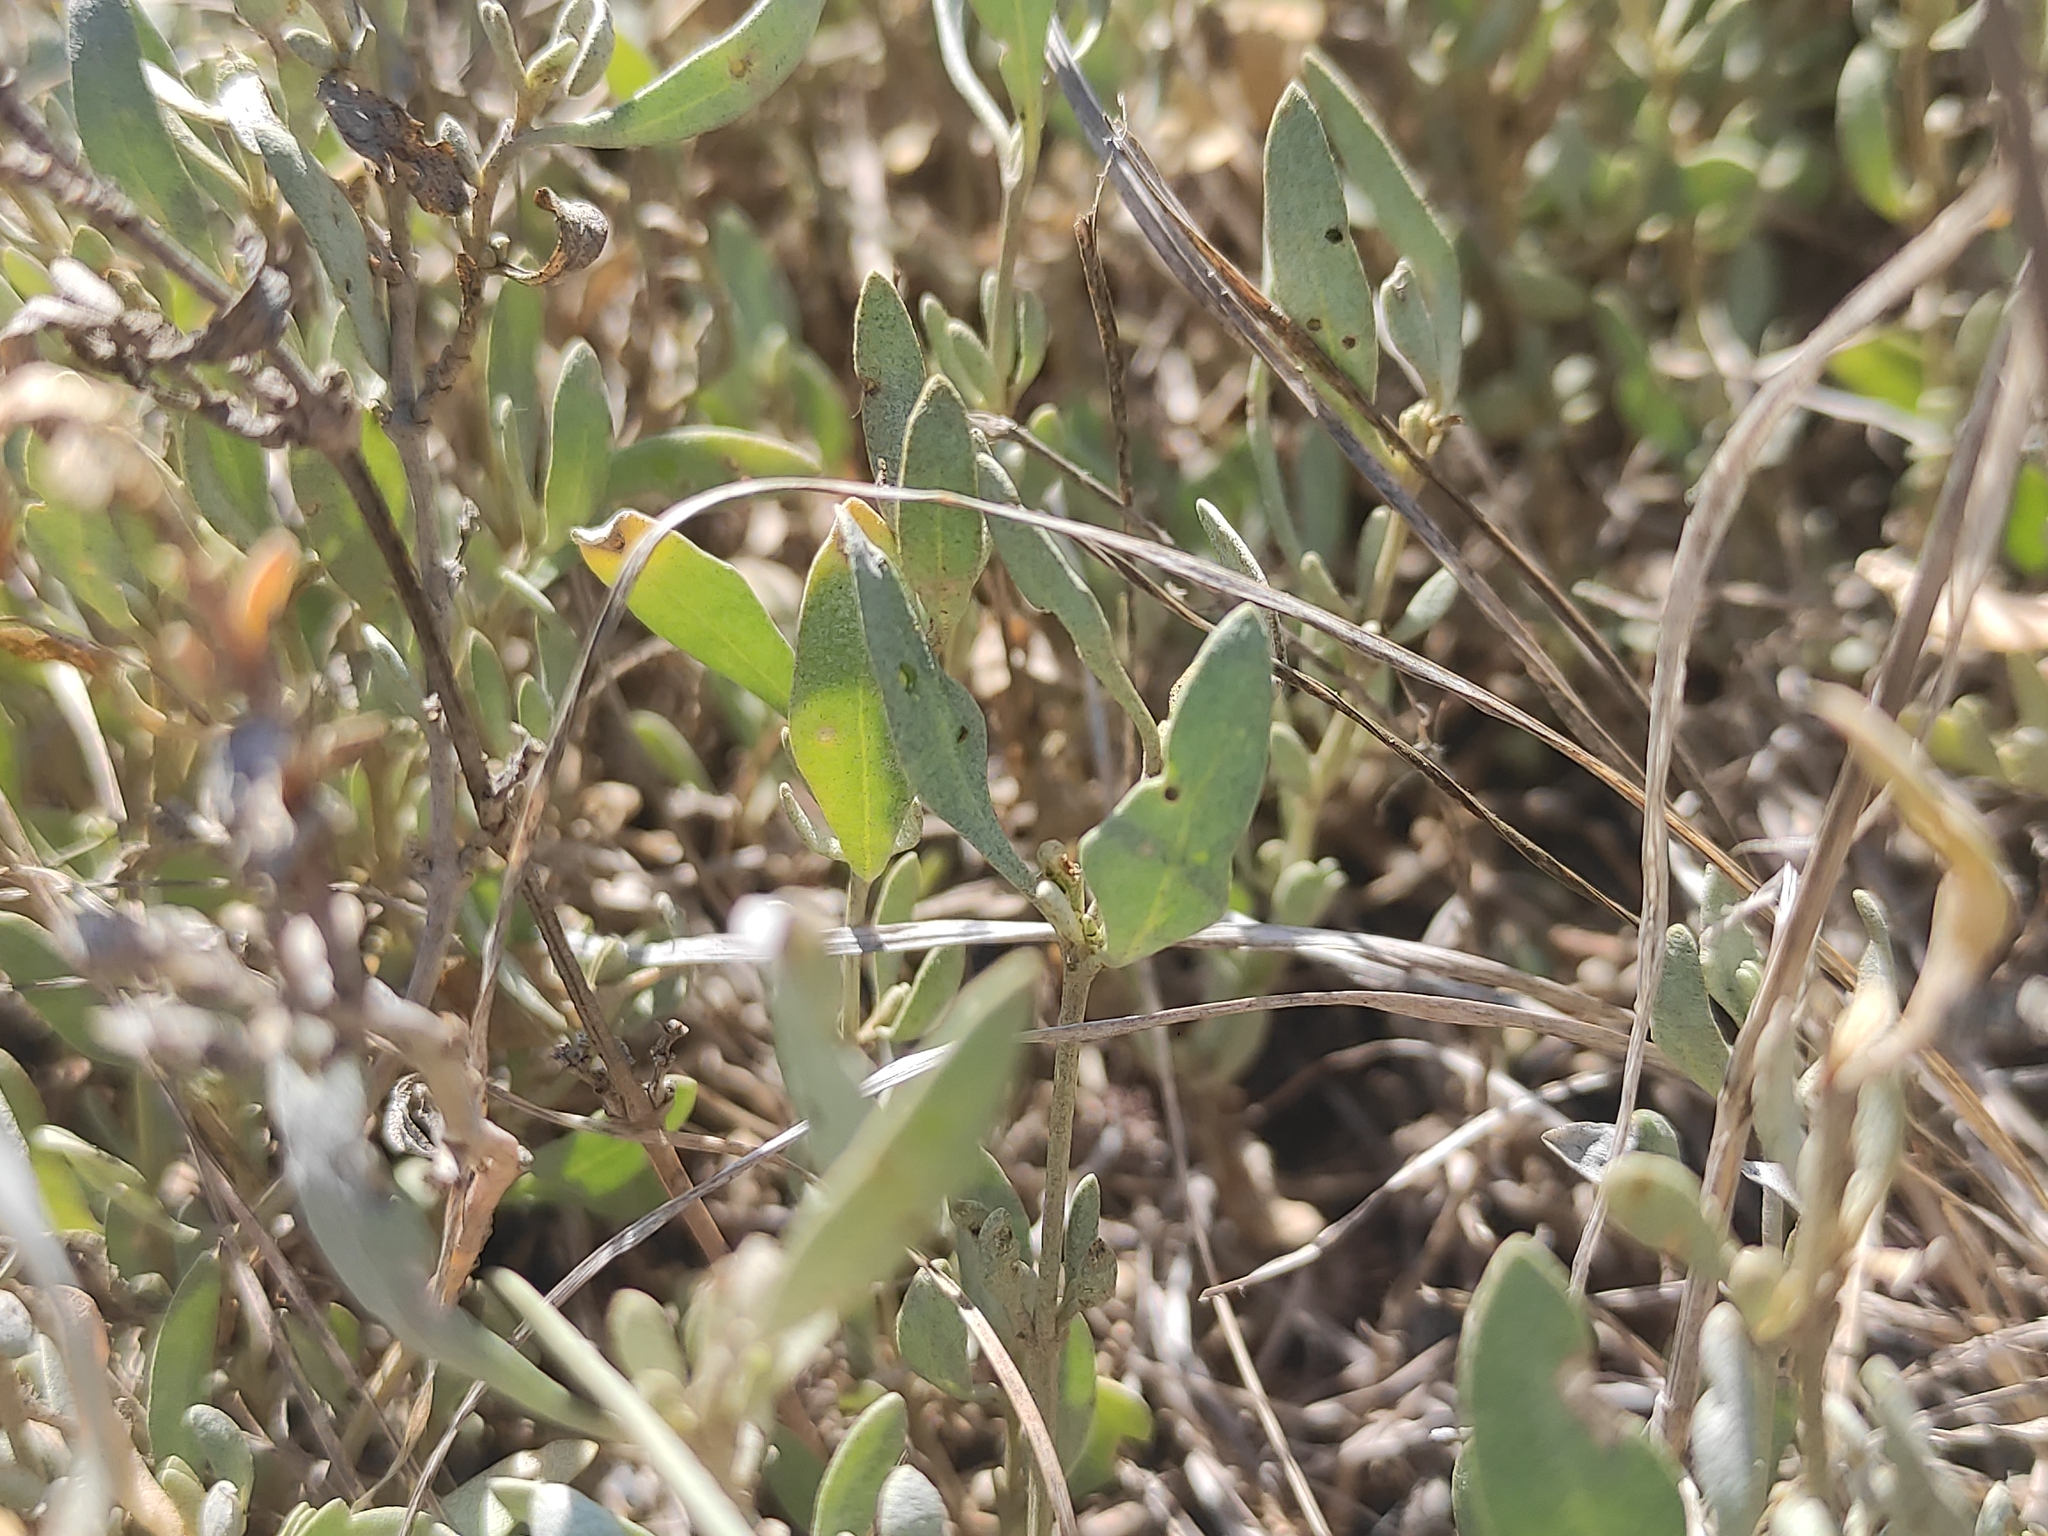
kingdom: Plantae
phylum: Tracheophyta
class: Magnoliopsida
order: Caryophyllales
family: Amaranthaceae
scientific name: Amaranthaceae
